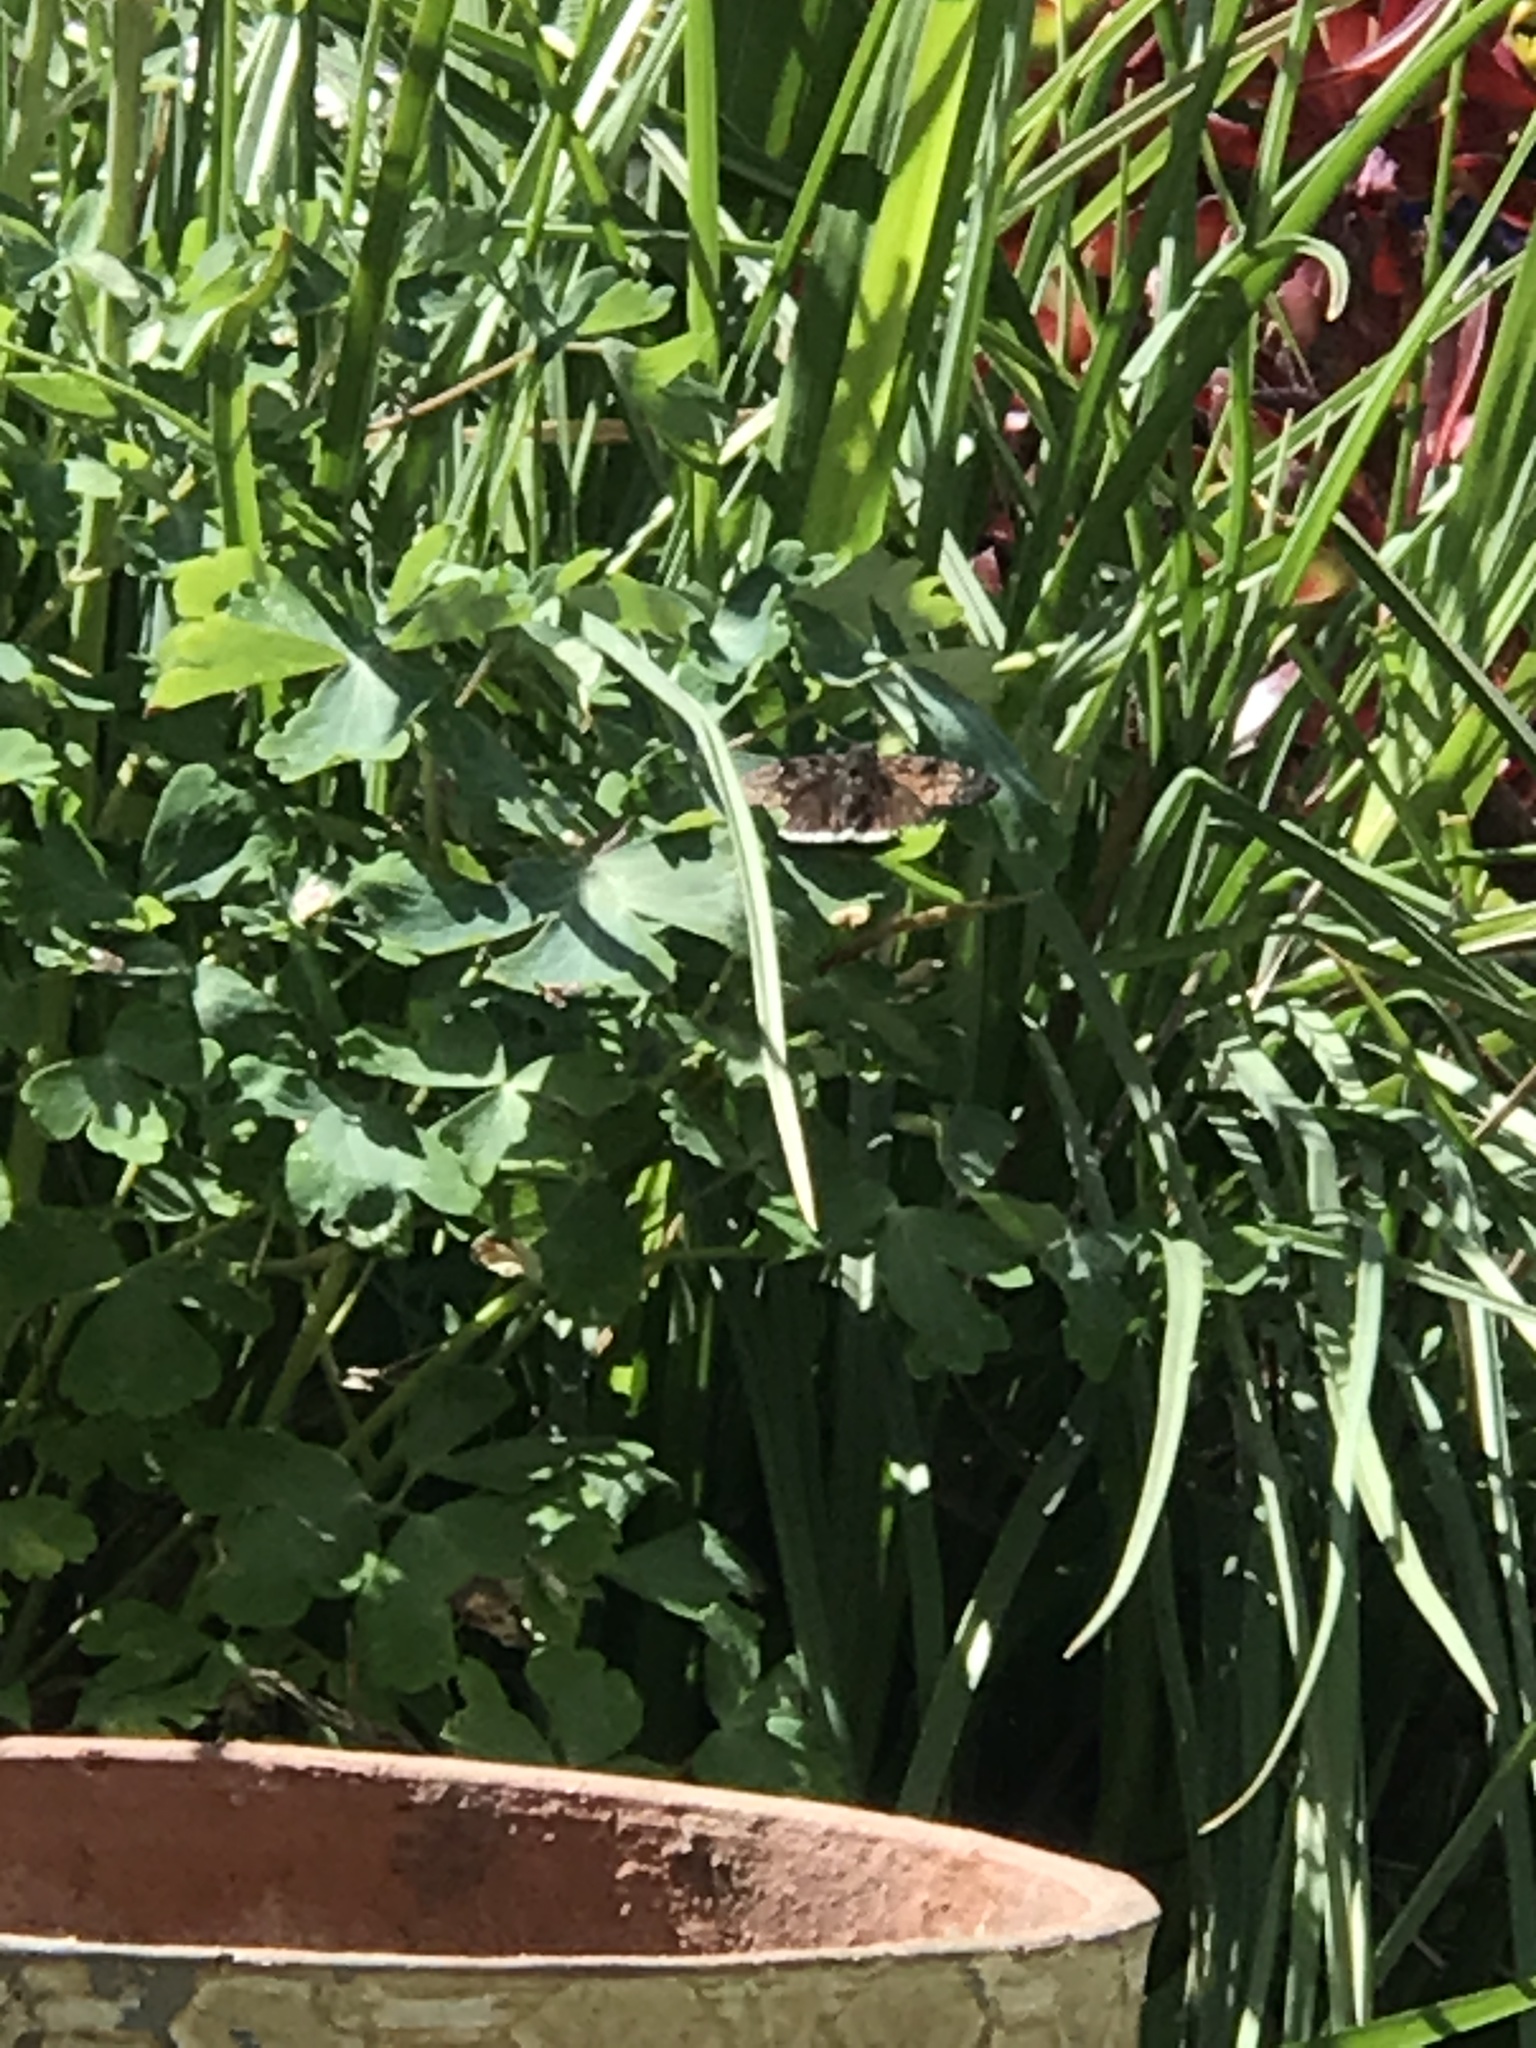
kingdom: Animalia
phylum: Arthropoda
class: Insecta
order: Lepidoptera
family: Hesperiidae
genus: Erynnis
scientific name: Erynnis tristis
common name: Mournful duskywing
